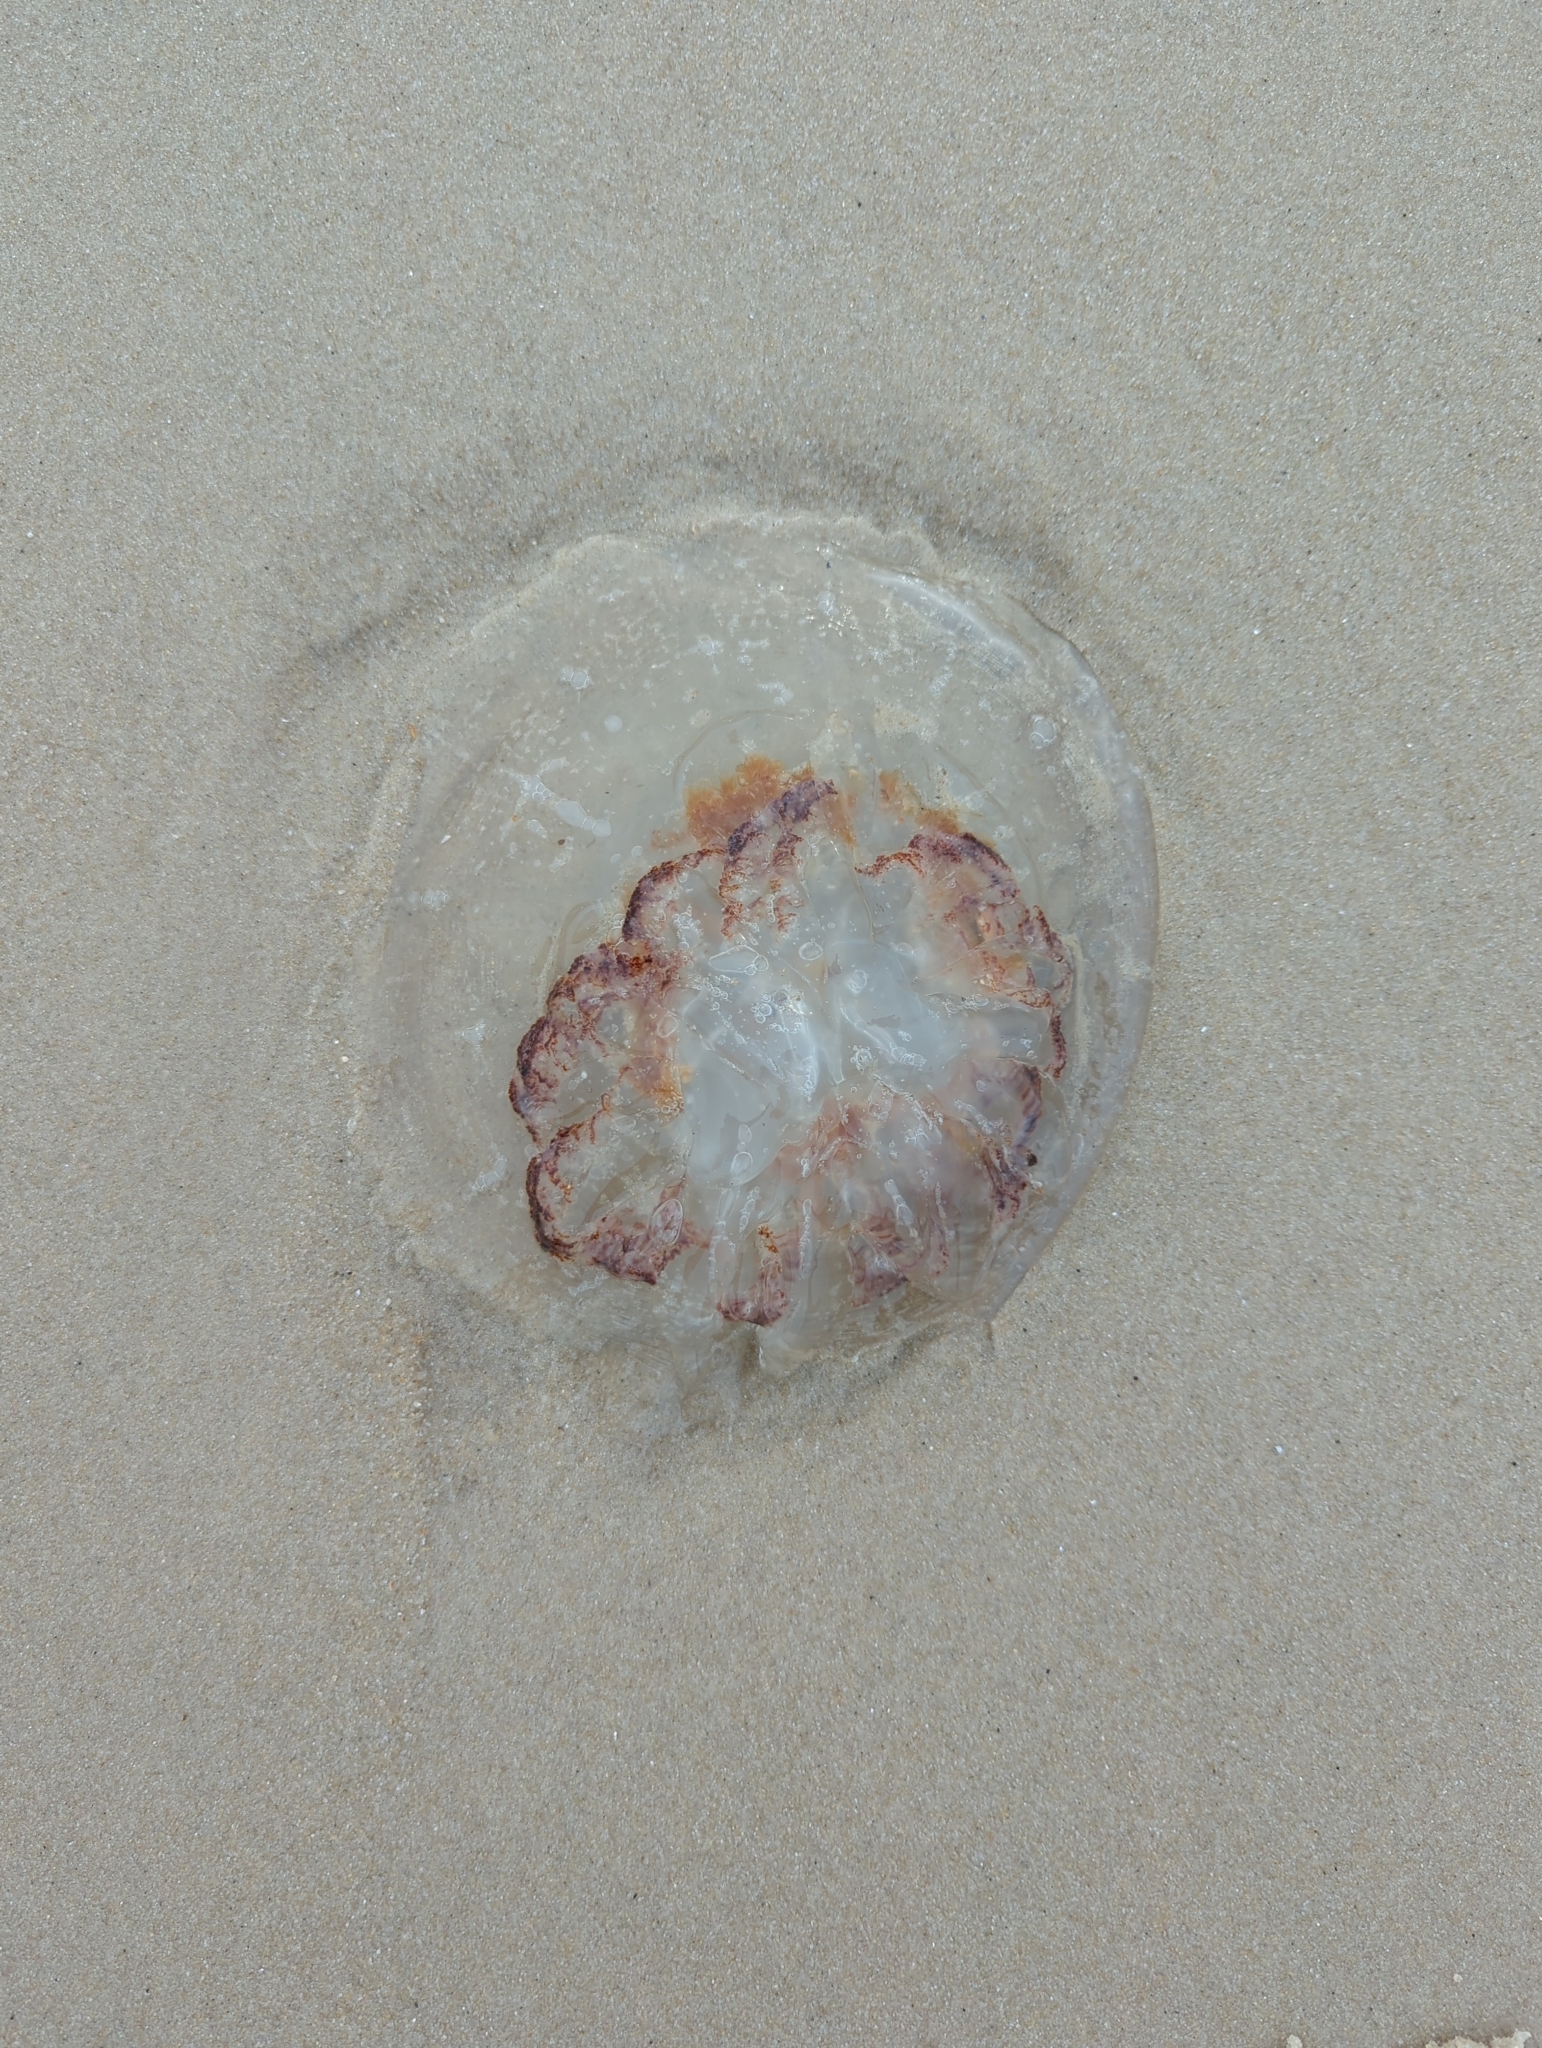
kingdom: Animalia
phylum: Cnidaria
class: Scyphozoa
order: Rhizostomeae
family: Rhizostomatidae
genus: Rhopilema
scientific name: Rhopilema verrilli
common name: Mushroom cap jellyfish
